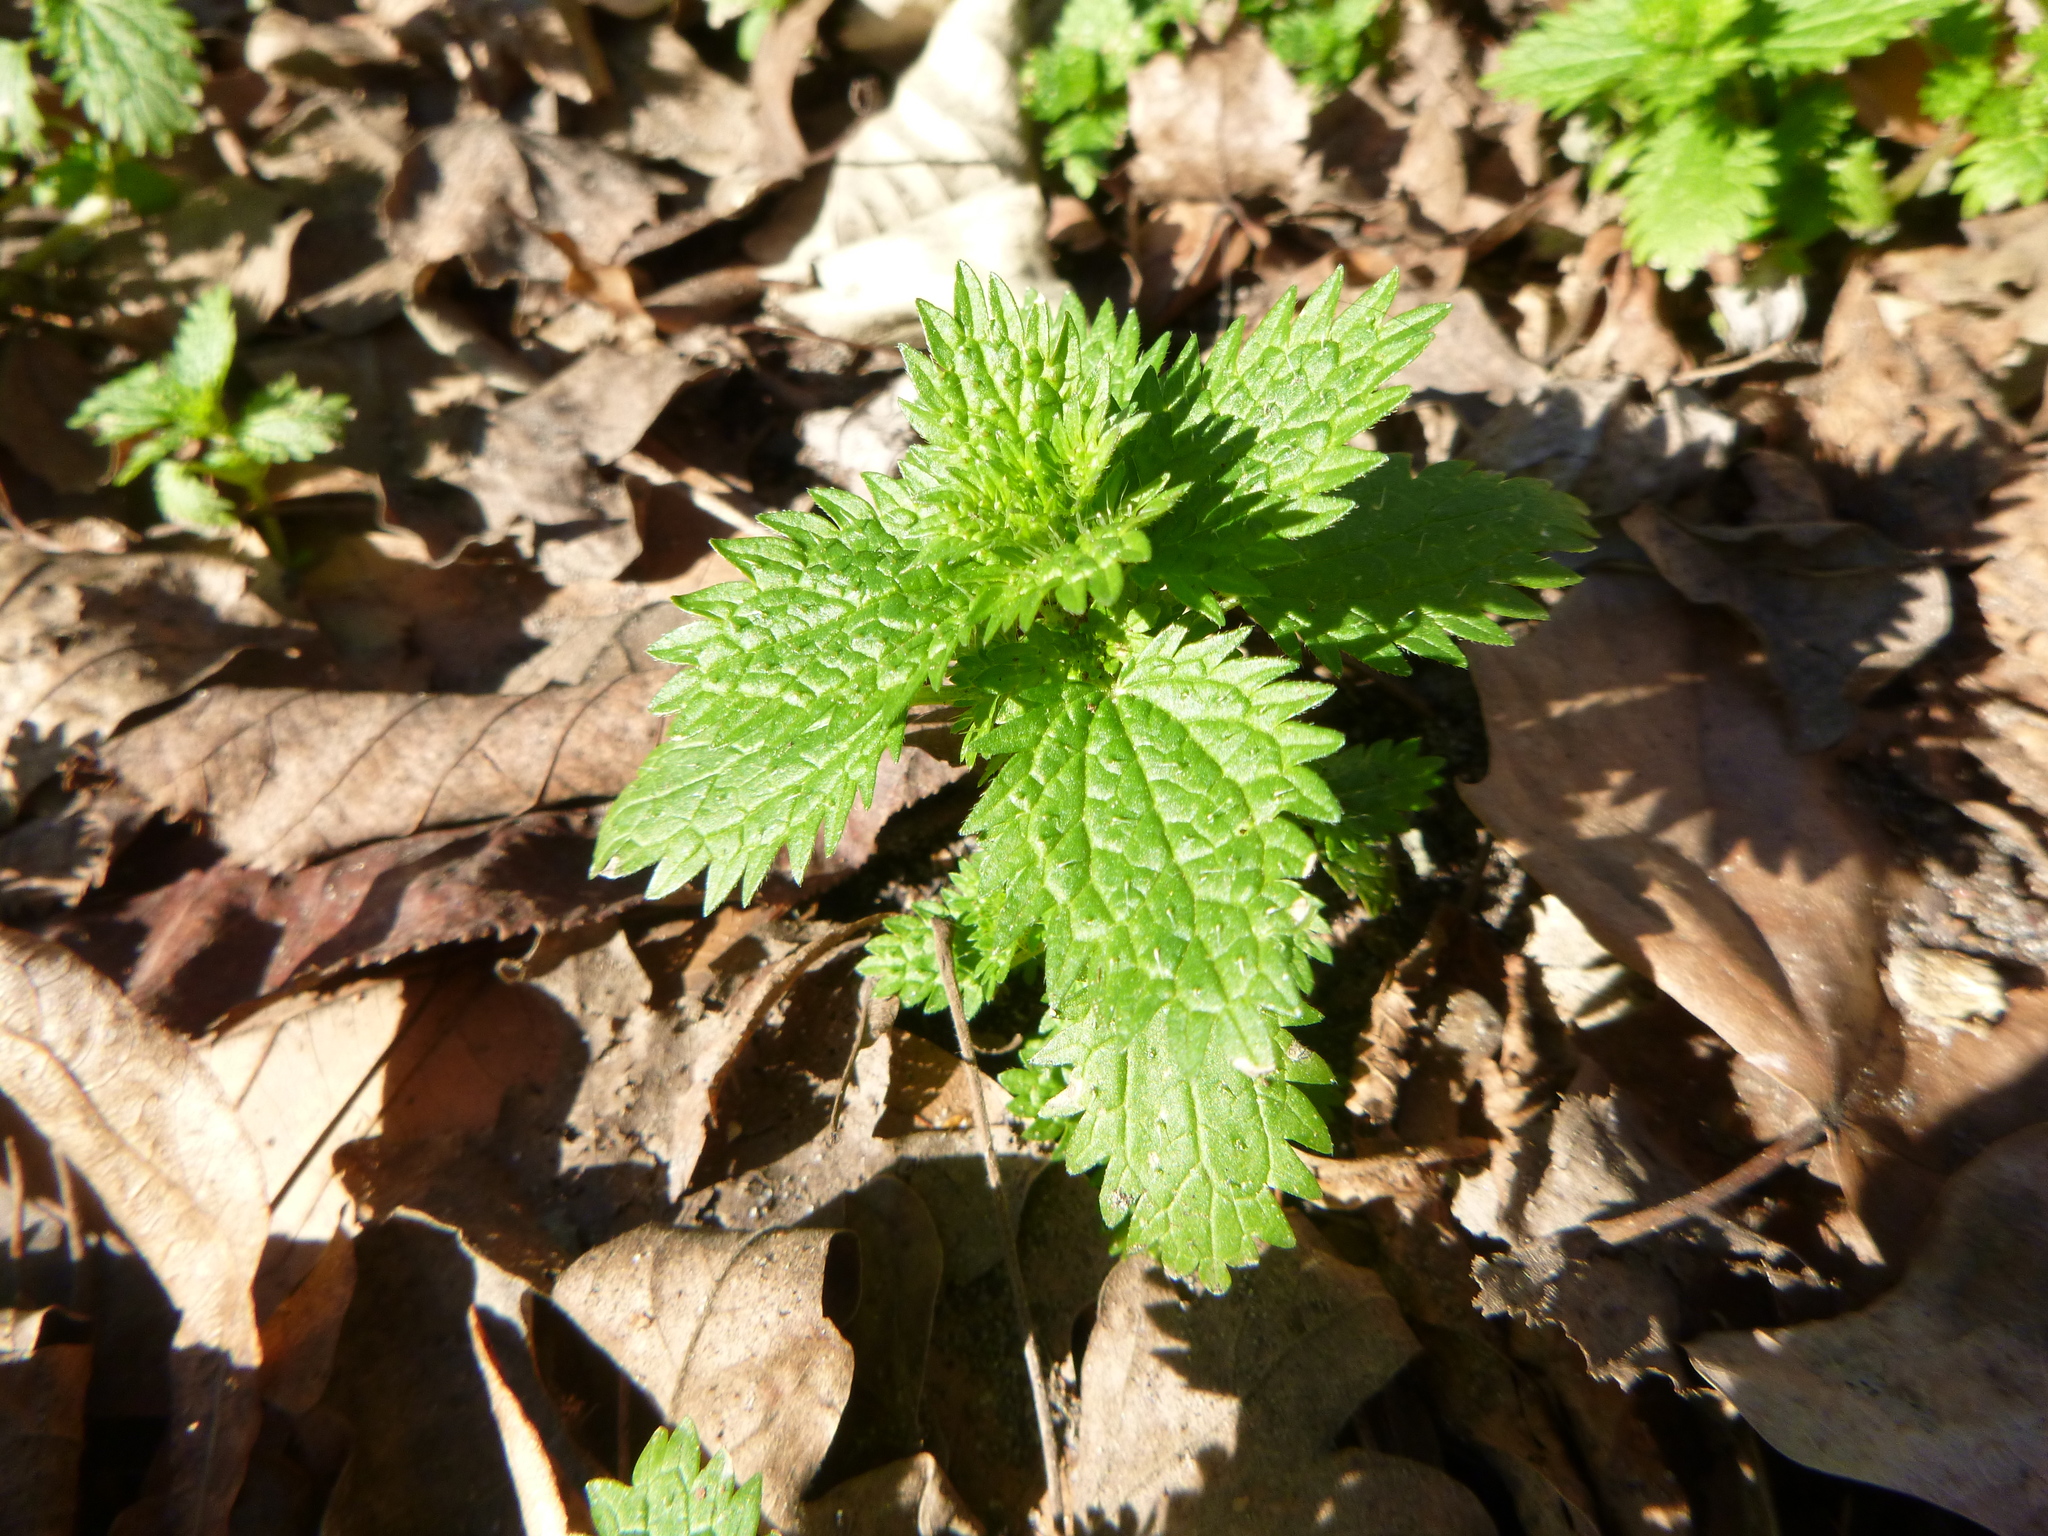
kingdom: Plantae
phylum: Tracheophyta
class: Magnoliopsida
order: Rosales
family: Urticaceae
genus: Urtica
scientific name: Urtica urens
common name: Dwarf nettle
